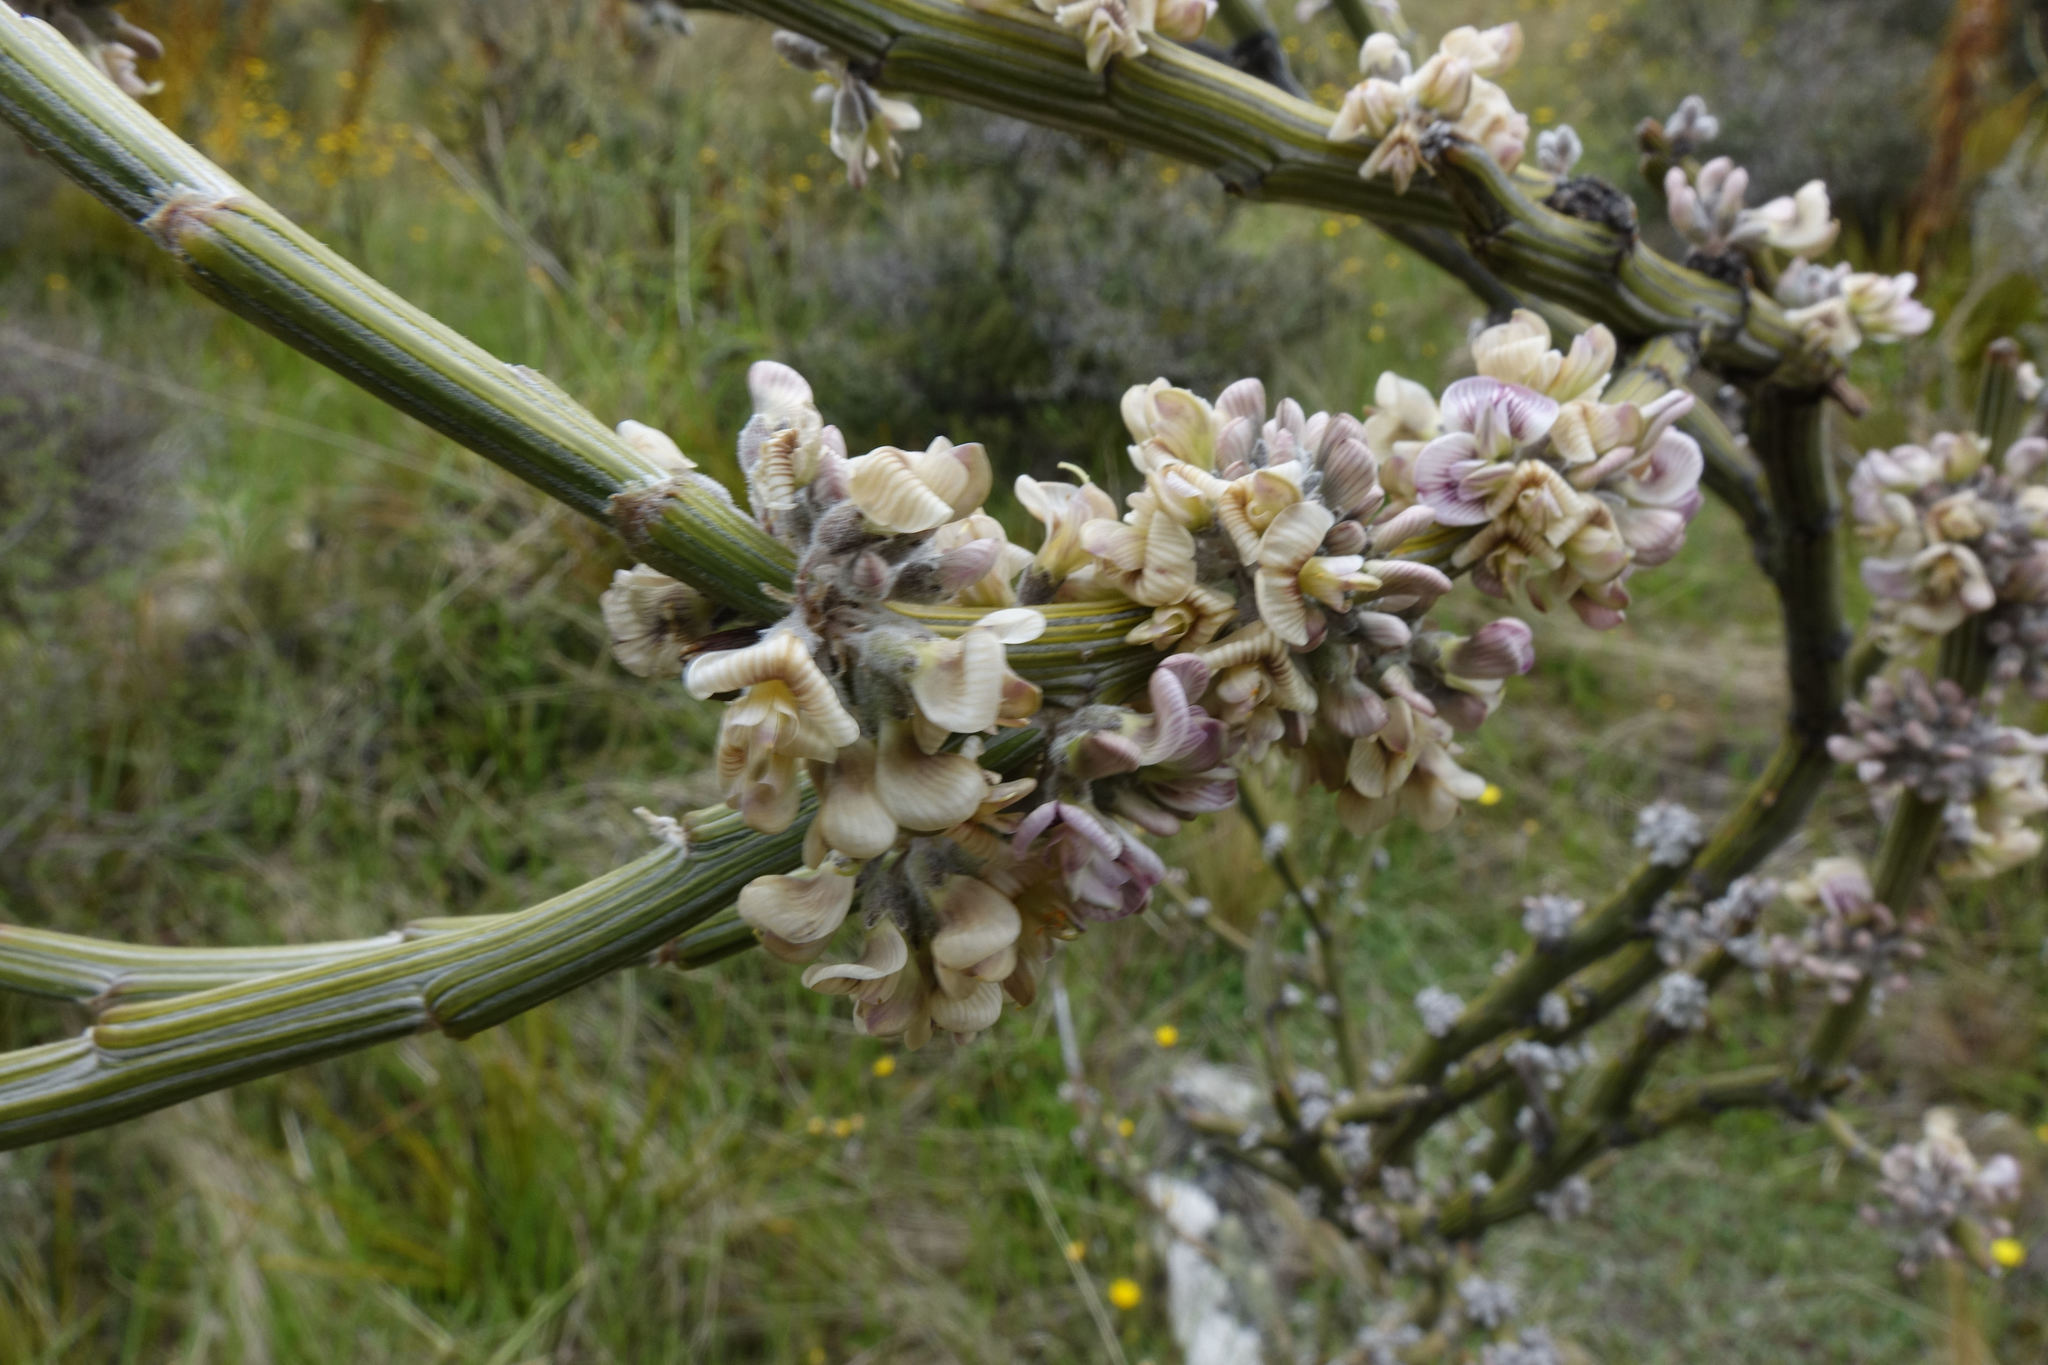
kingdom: Plantae
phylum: Tracheophyta
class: Magnoliopsida
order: Fabales
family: Fabaceae
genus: Carmichaelia
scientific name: Carmichaelia crassicaulis
